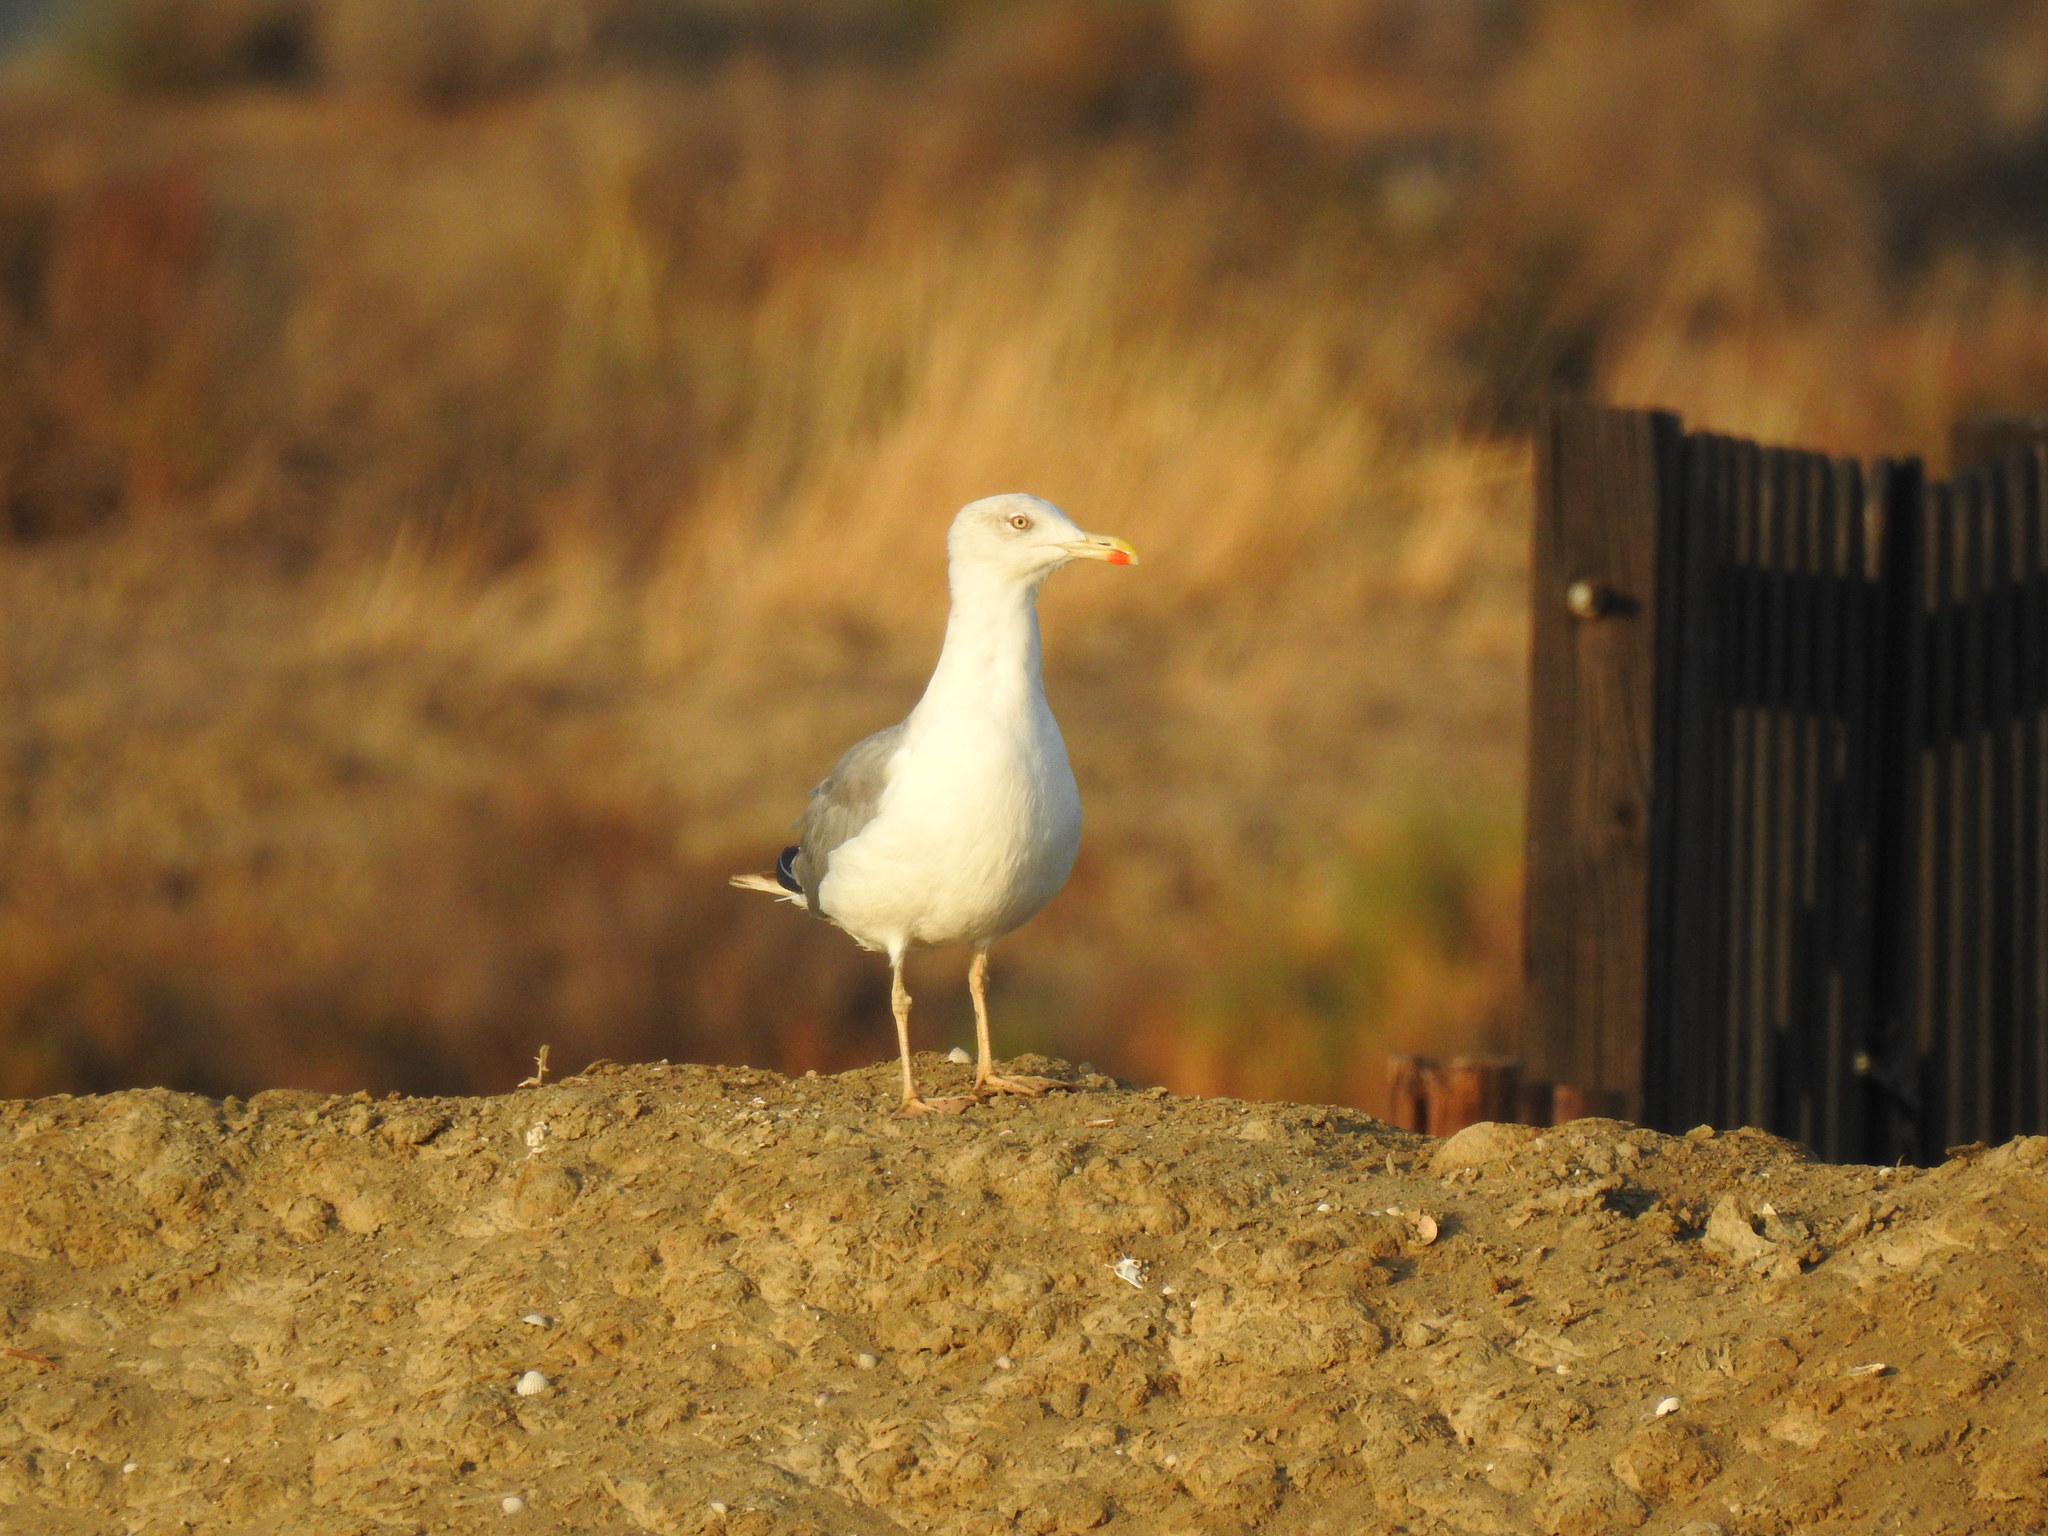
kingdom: Animalia
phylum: Chordata
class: Aves
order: Charadriiformes
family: Laridae
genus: Larus
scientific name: Larus michahellis
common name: Yellow-legged gull
